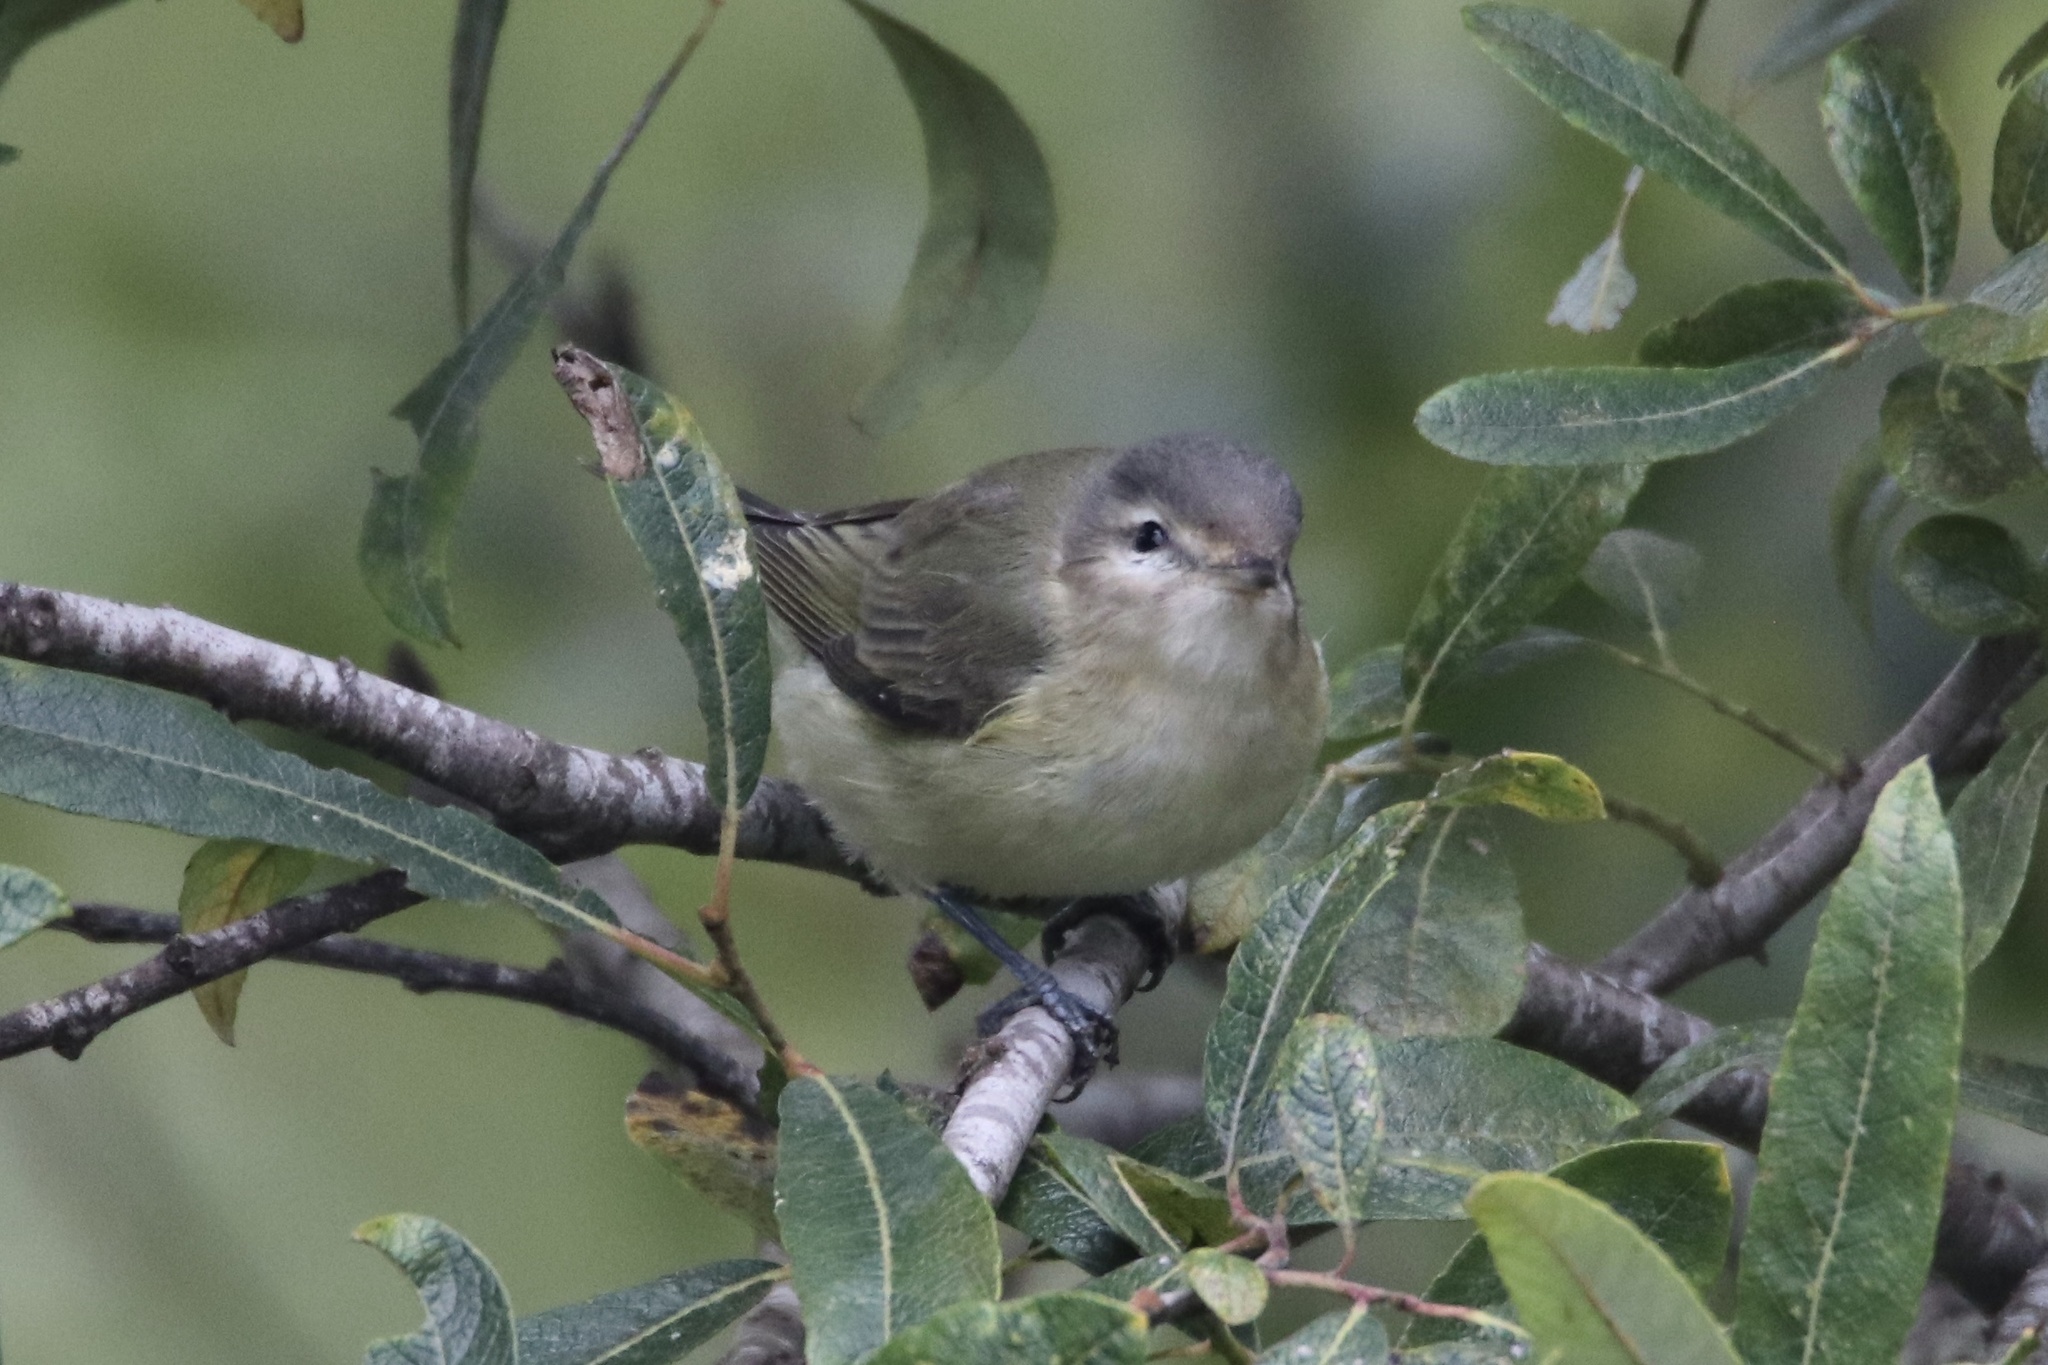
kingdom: Animalia
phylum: Chordata
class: Aves
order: Passeriformes
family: Vireonidae
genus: Vireo
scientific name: Vireo gilvus
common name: Warbling vireo
